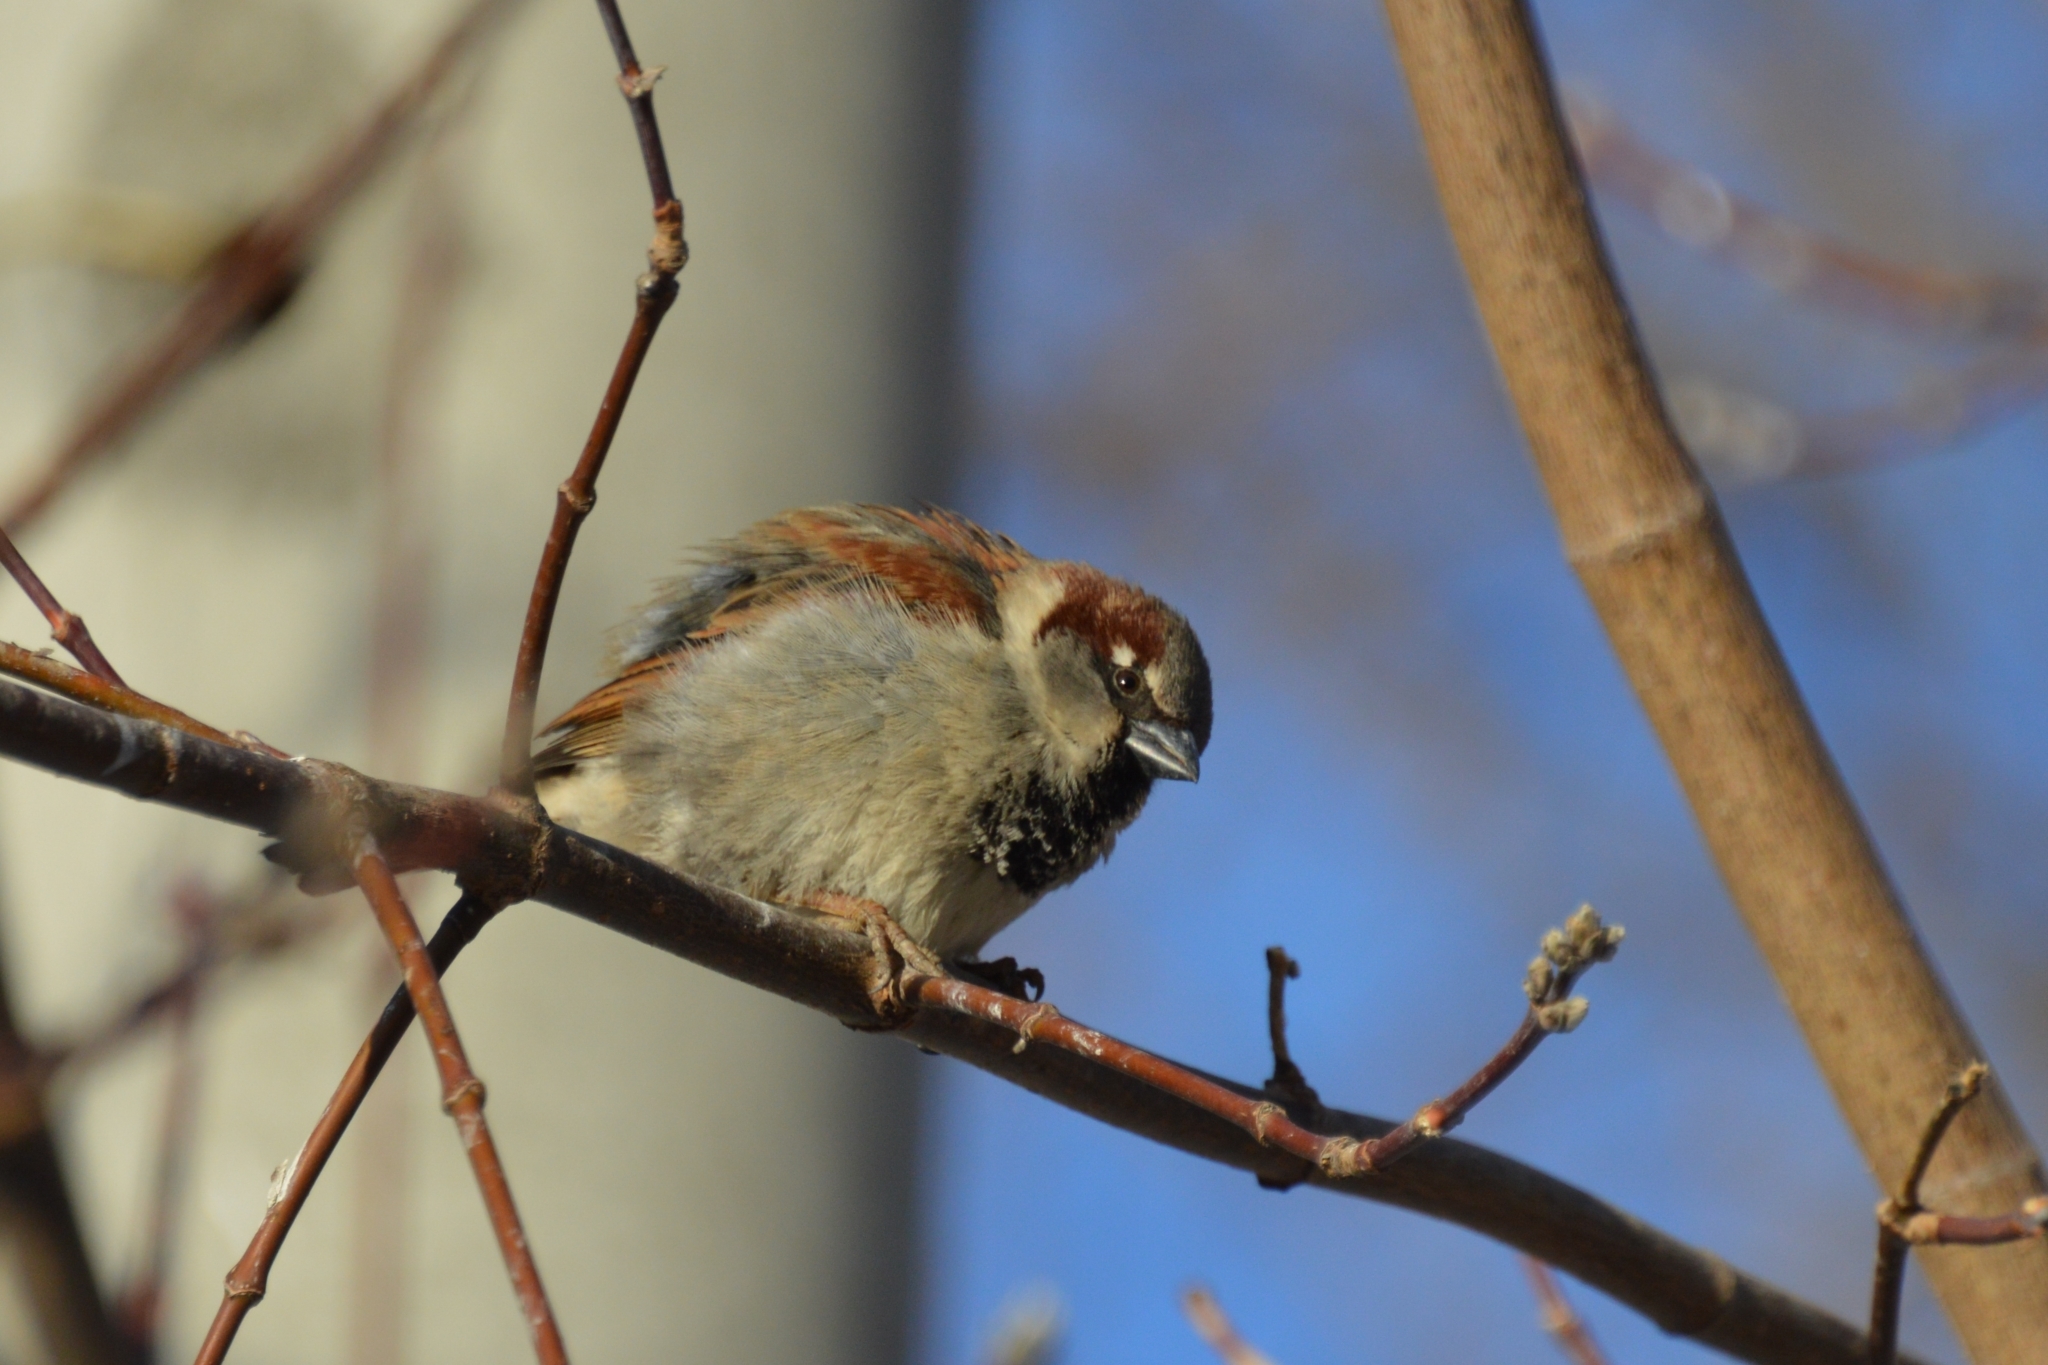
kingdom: Animalia
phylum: Chordata
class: Aves
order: Passeriformes
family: Passeridae
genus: Passer
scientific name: Passer domesticus
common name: House sparrow
